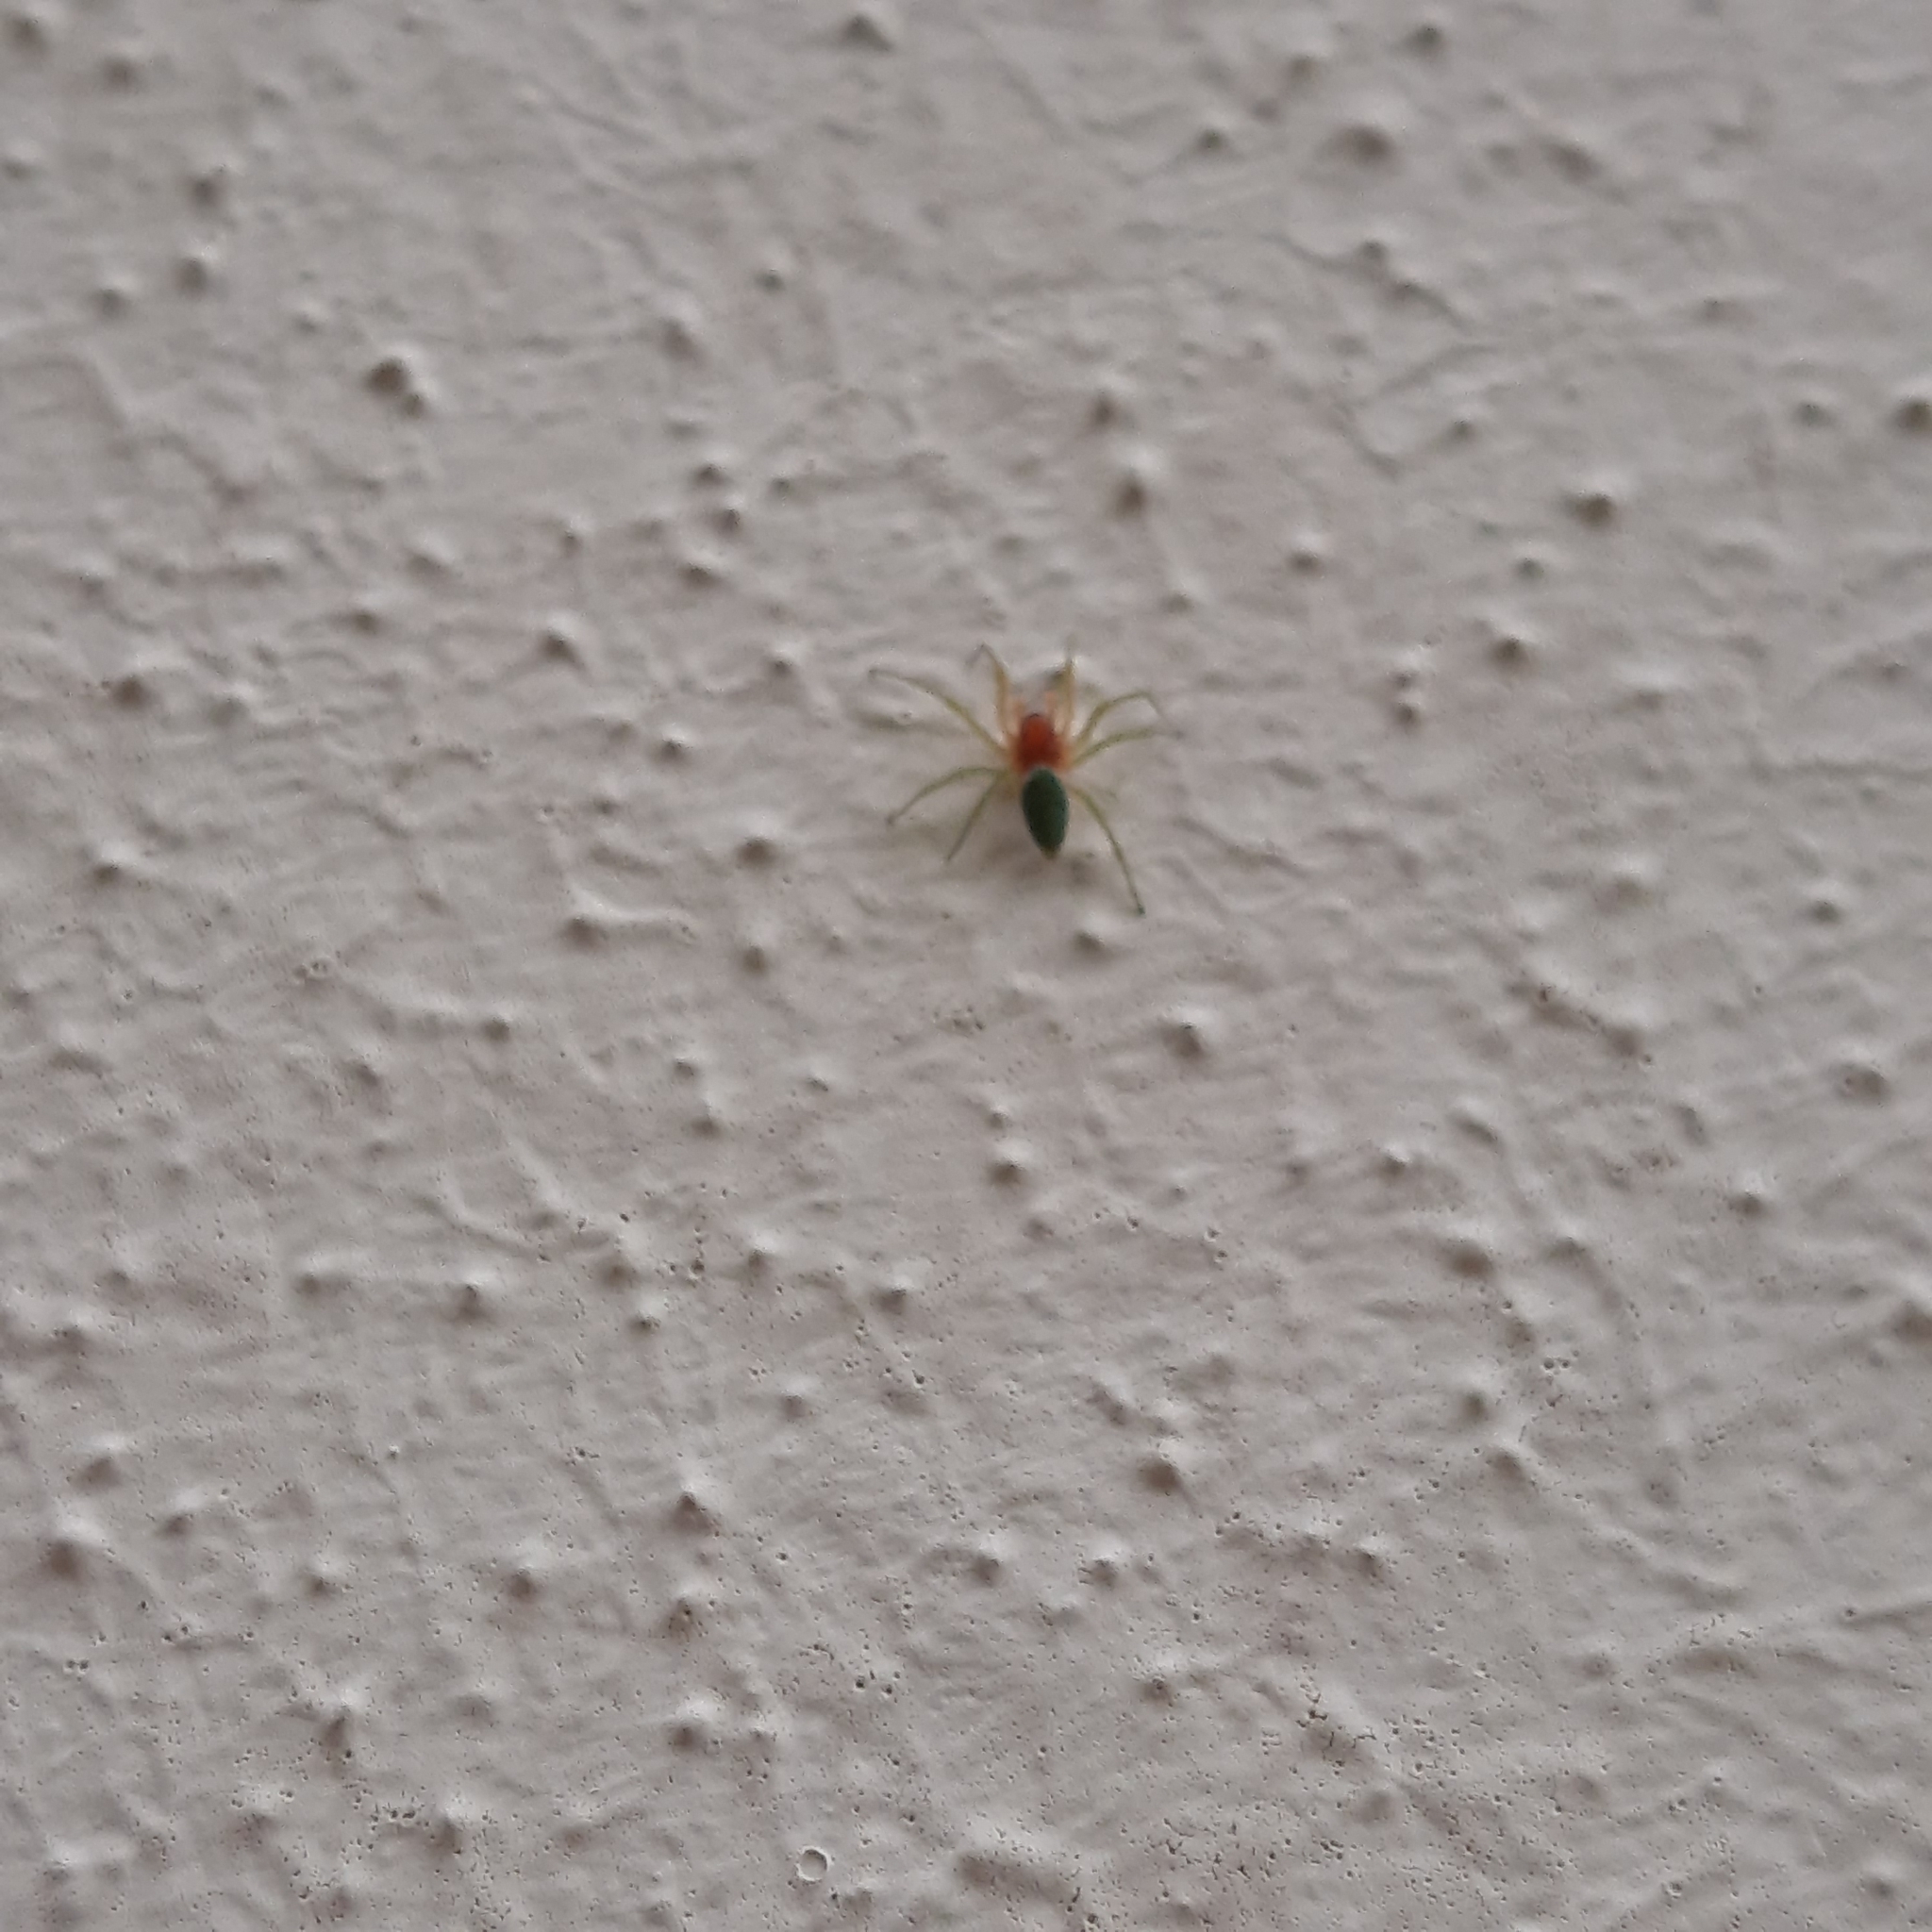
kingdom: Animalia
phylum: Arthropoda
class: Arachnida
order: Araneae
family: Dictynidae
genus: Nigma
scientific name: Nigma walckenaeri
